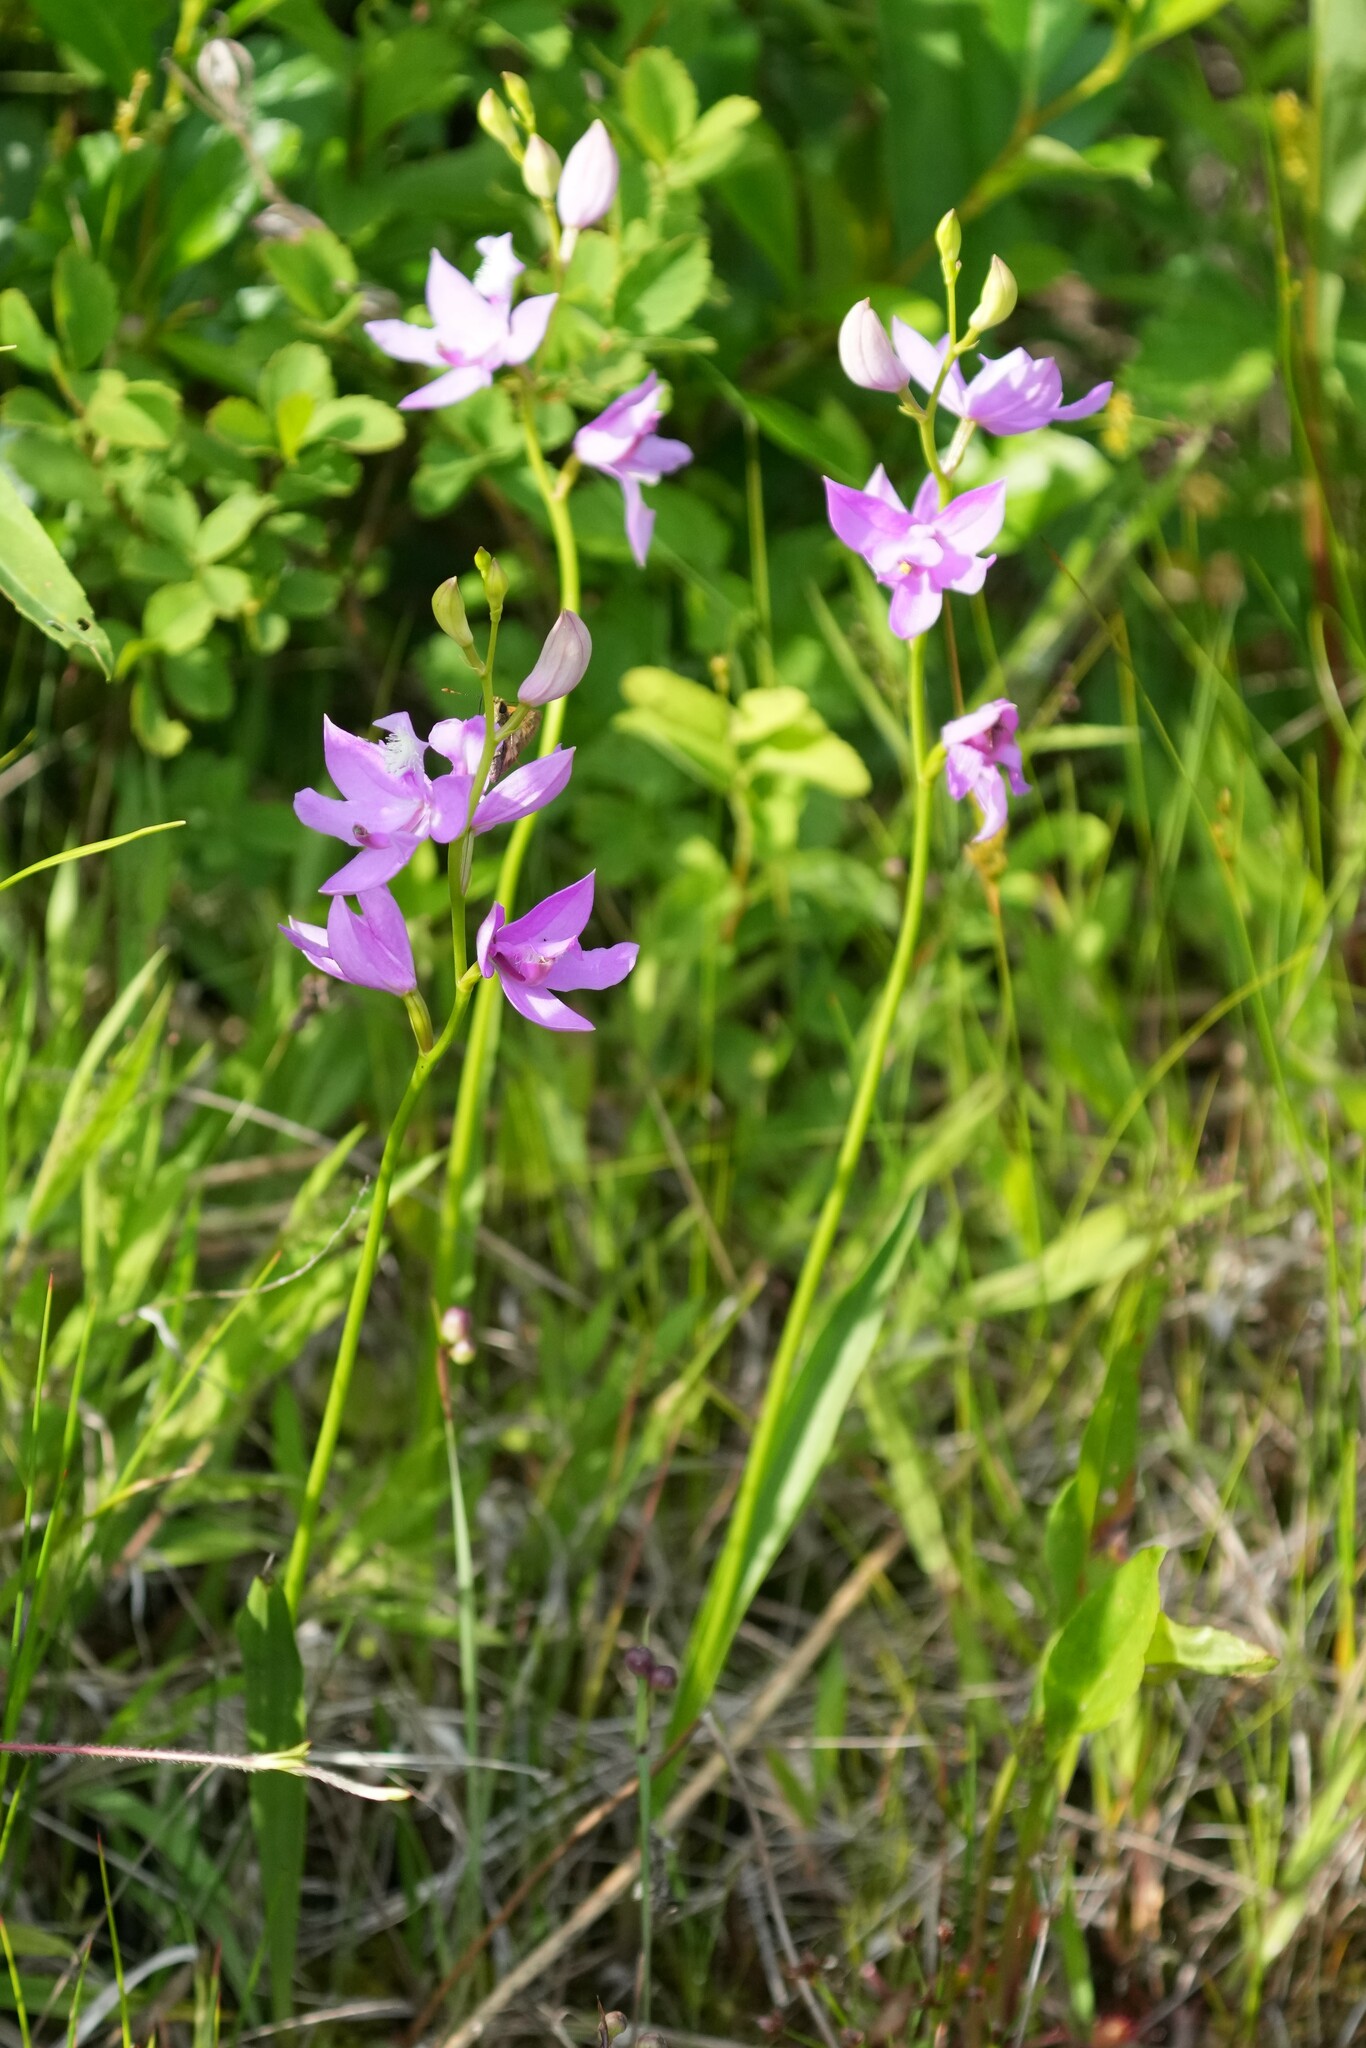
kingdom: Plantae
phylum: Tracheophyta
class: Liliopsida
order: Asparagales
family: Orchidaceae
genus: Calopogon
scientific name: Calopogon tuberosus
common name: Grass-pink
